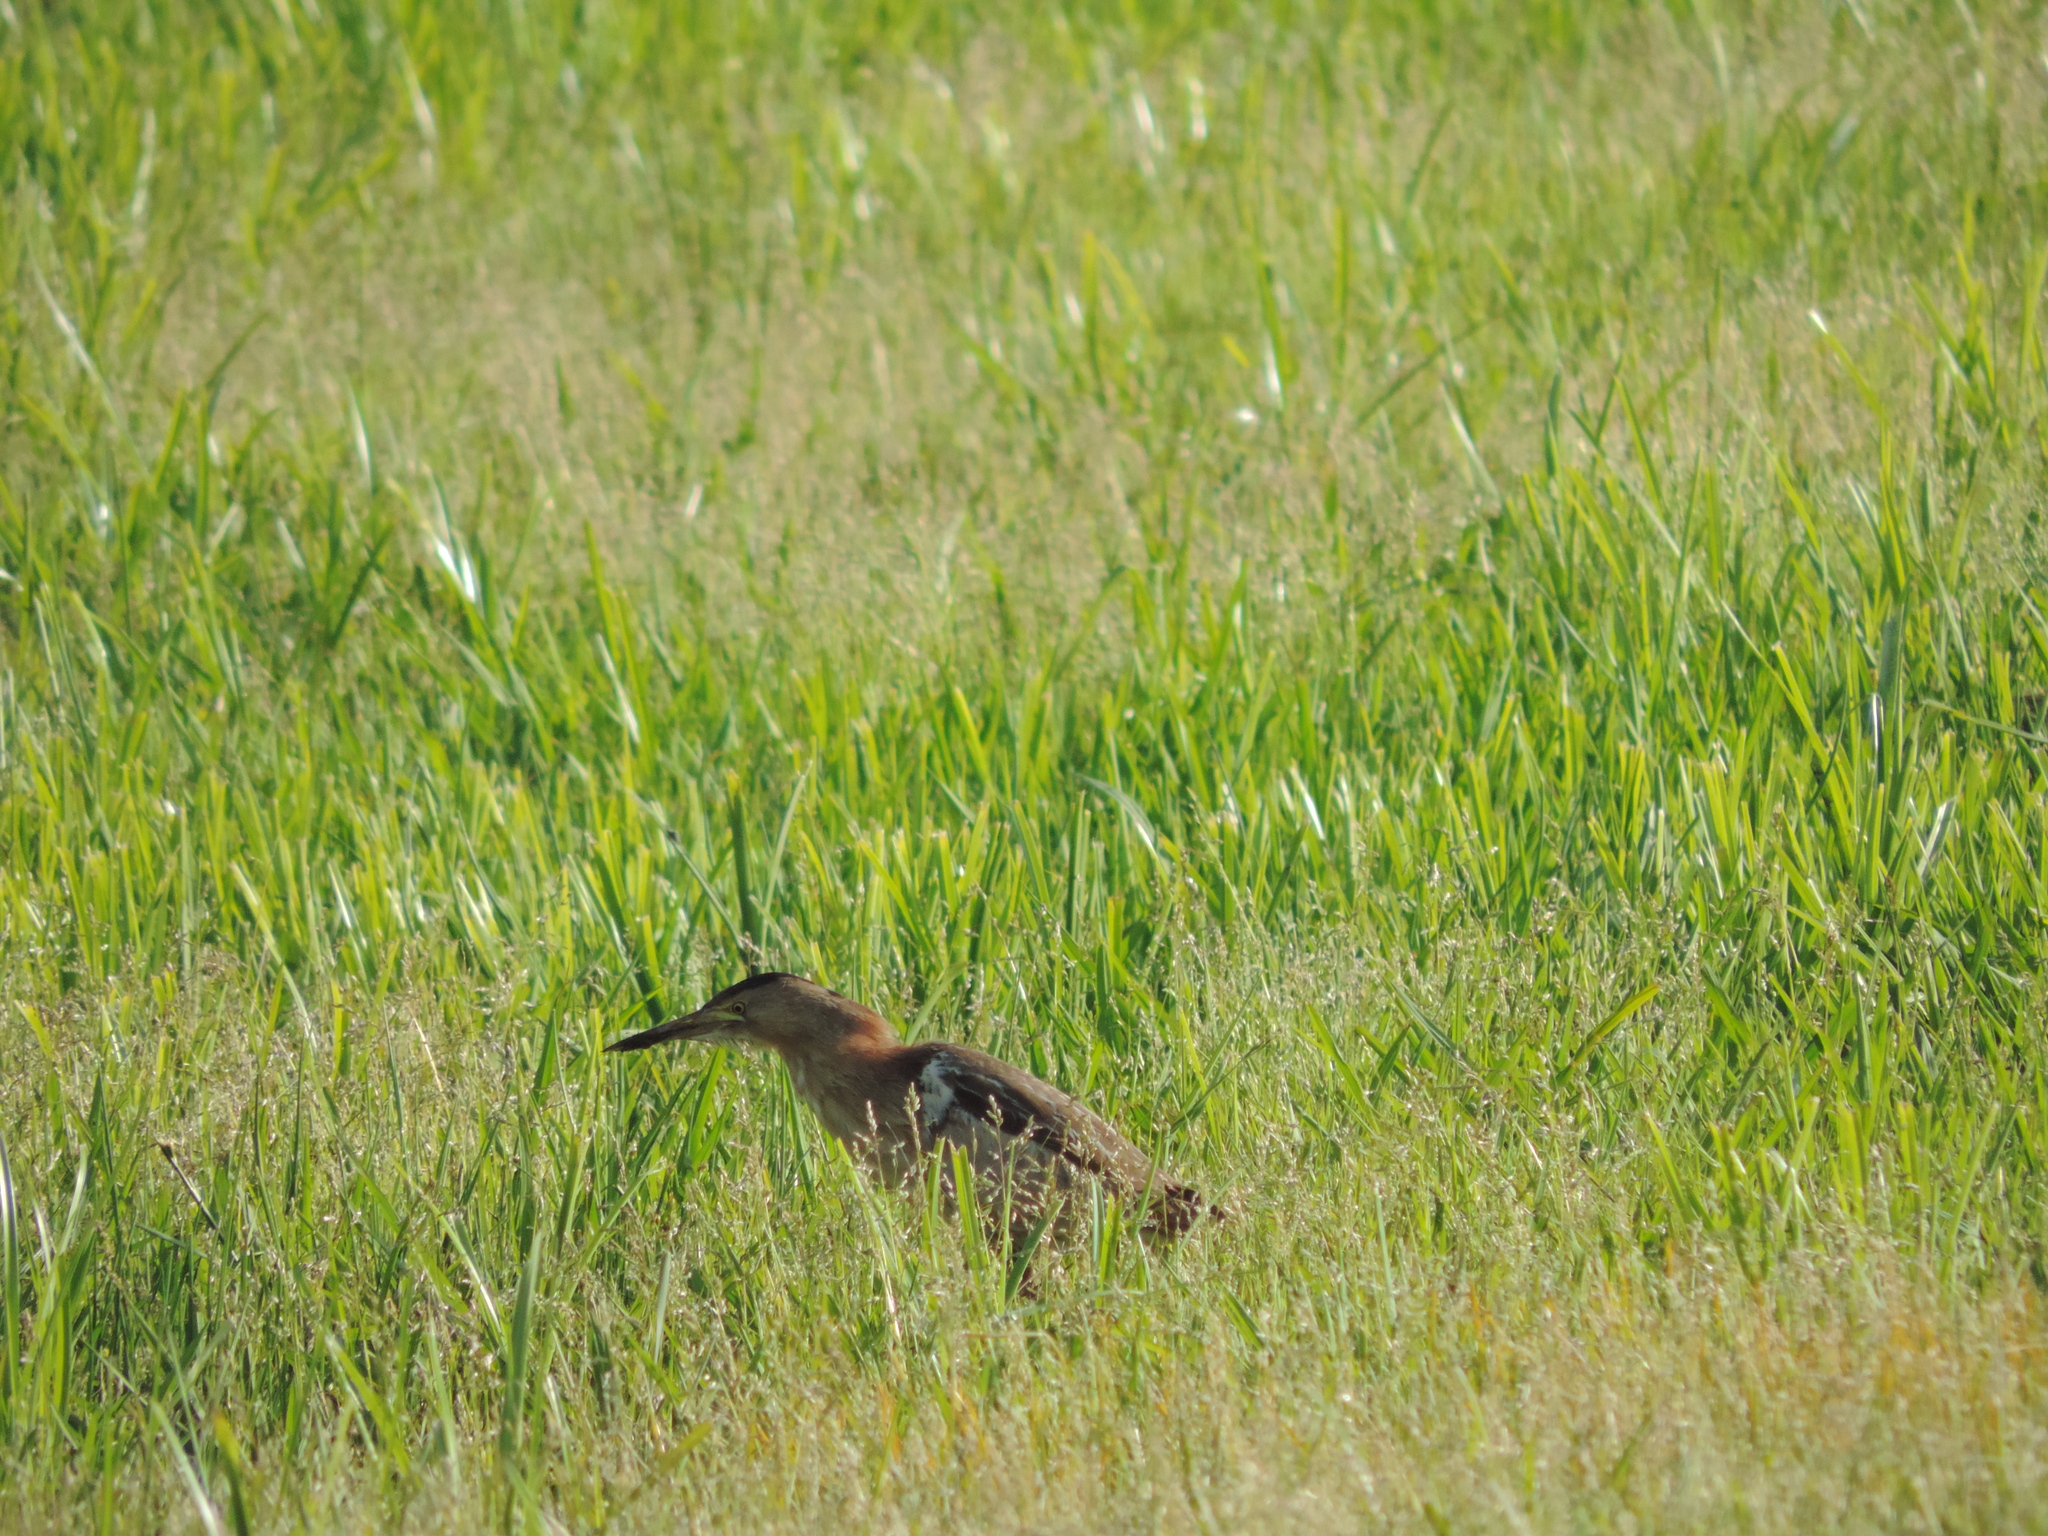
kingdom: Animalia
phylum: Chordata
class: Aves
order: Pelecaniformes
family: Ardeidae
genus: Ixobrychus
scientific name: Ixobrychus minutus
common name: Little bittern
